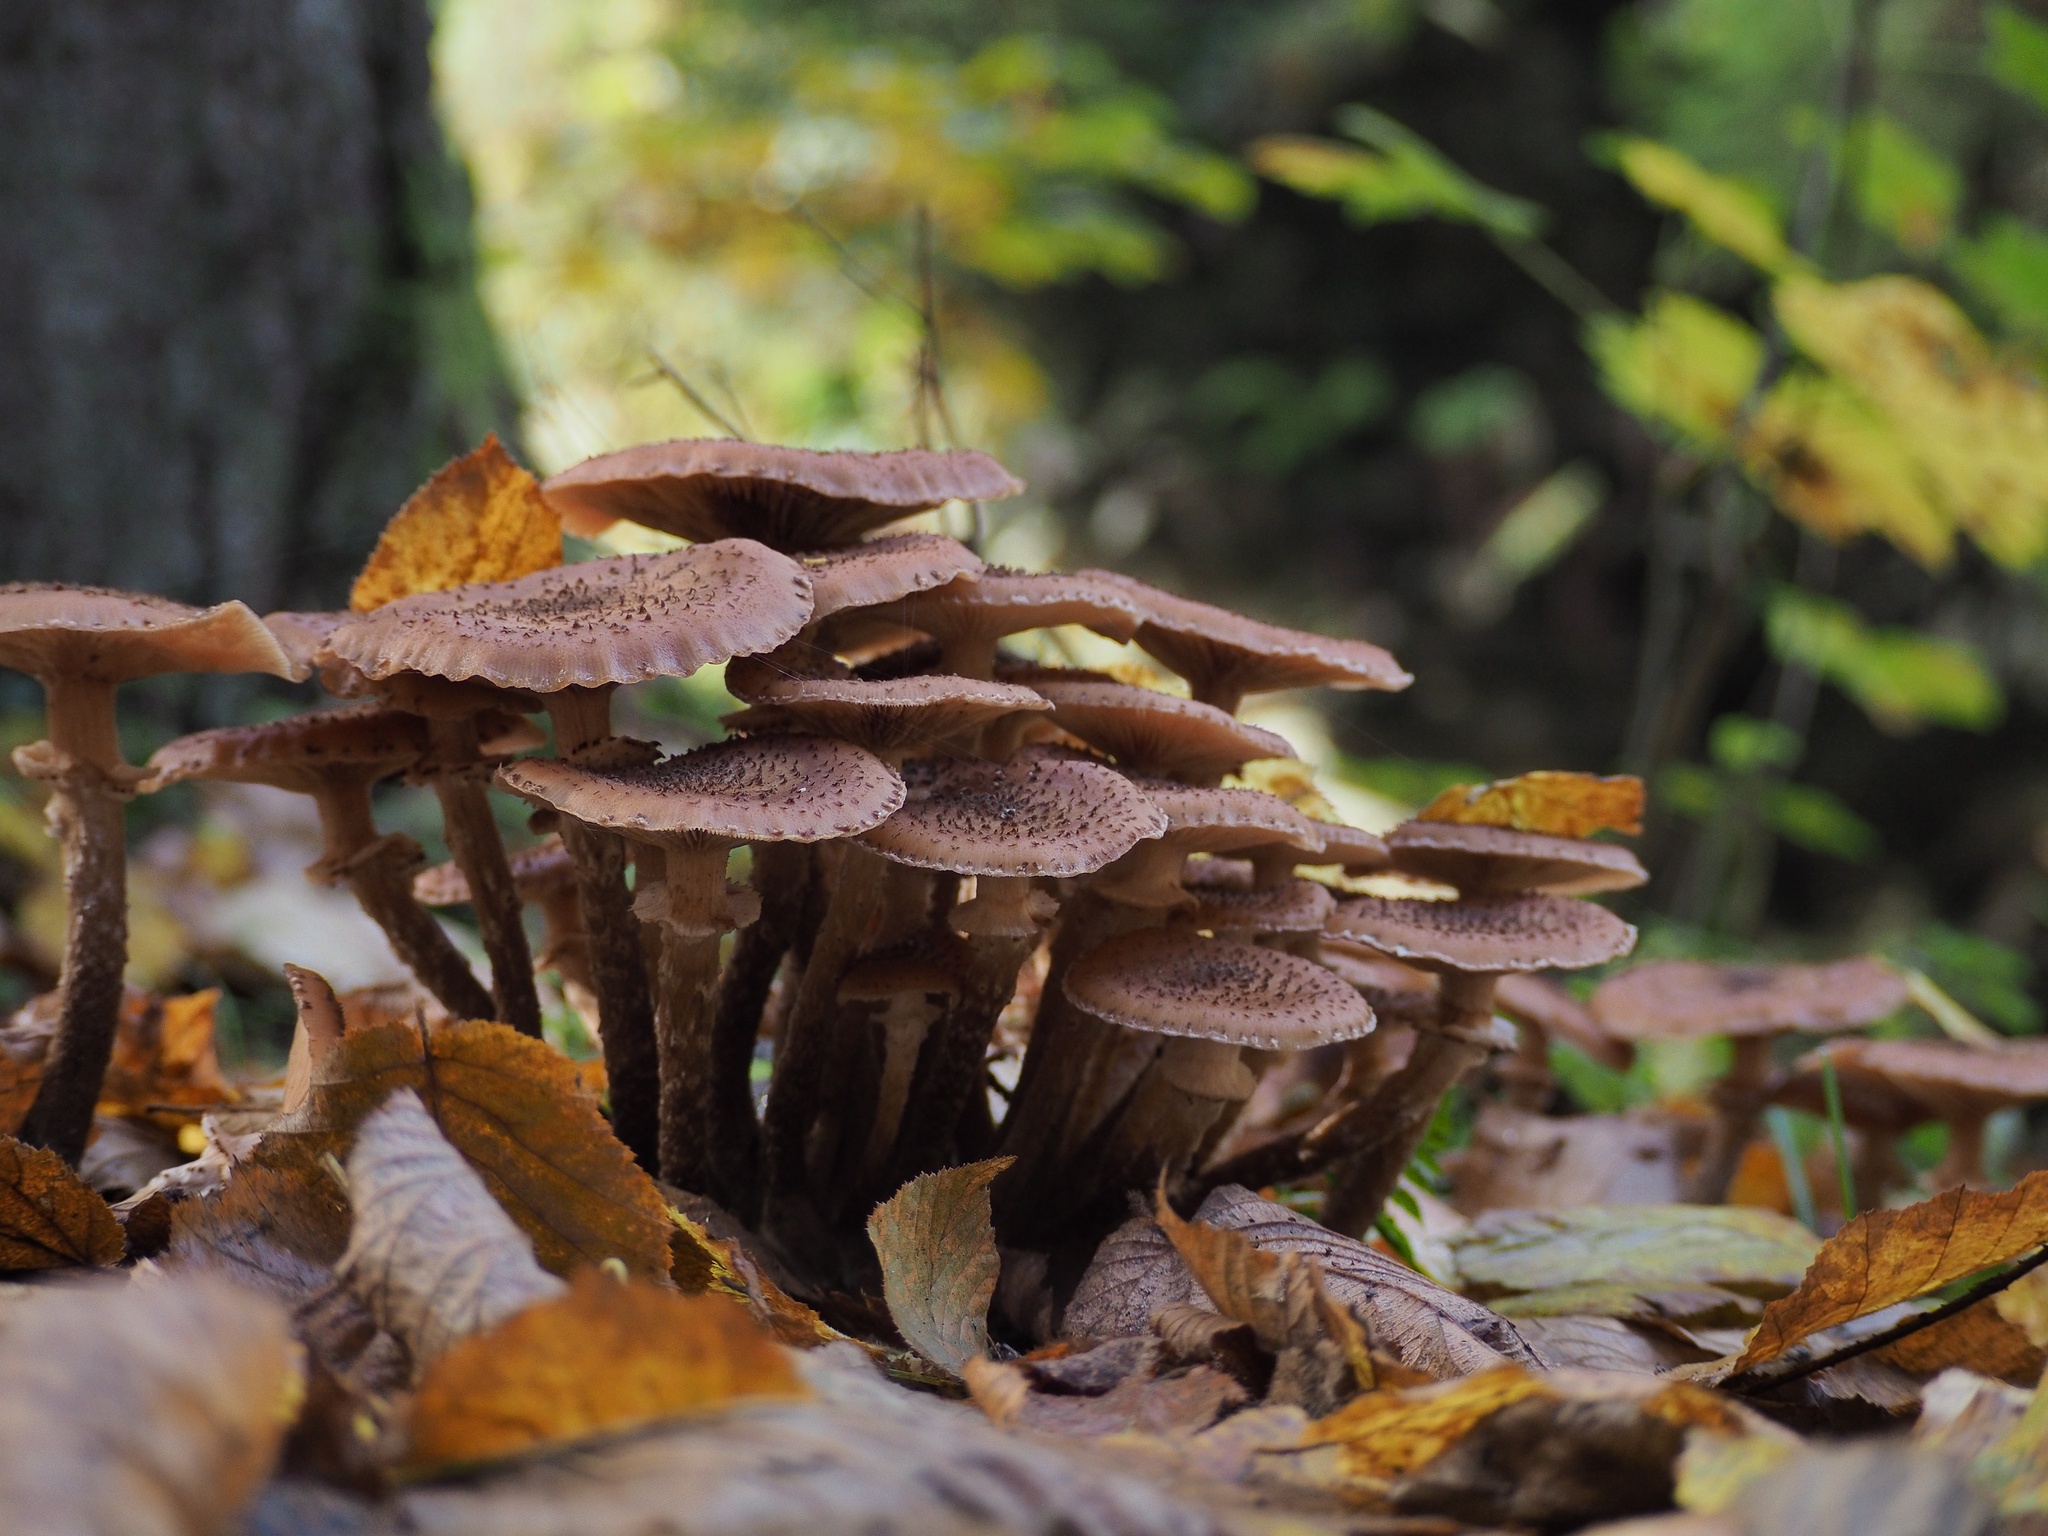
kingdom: Fungi
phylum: Basidiomycota
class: Agaricomycetes
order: Agaricales
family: Physalacriaceae
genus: Armillaria
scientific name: Armillaria ostoyae
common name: Dark honey fungus
